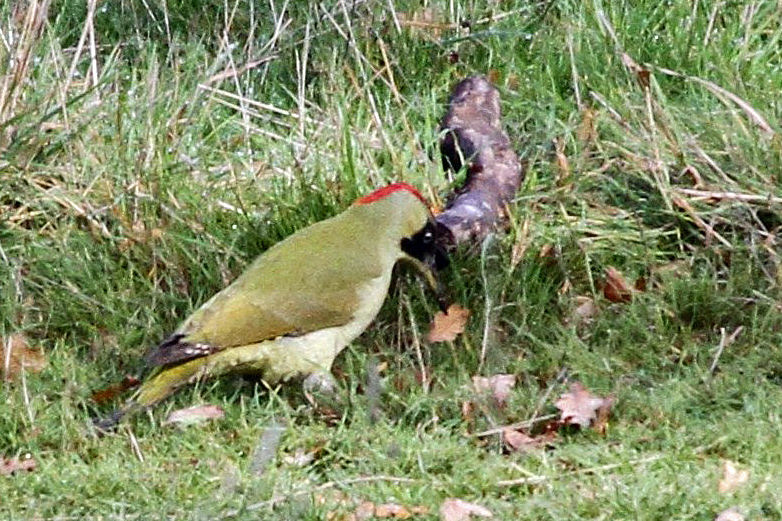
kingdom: Animalia
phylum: Chordata
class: Aves
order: Piciformes
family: Picidae
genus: Picus
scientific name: Picus viridis
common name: European green woodpecker
